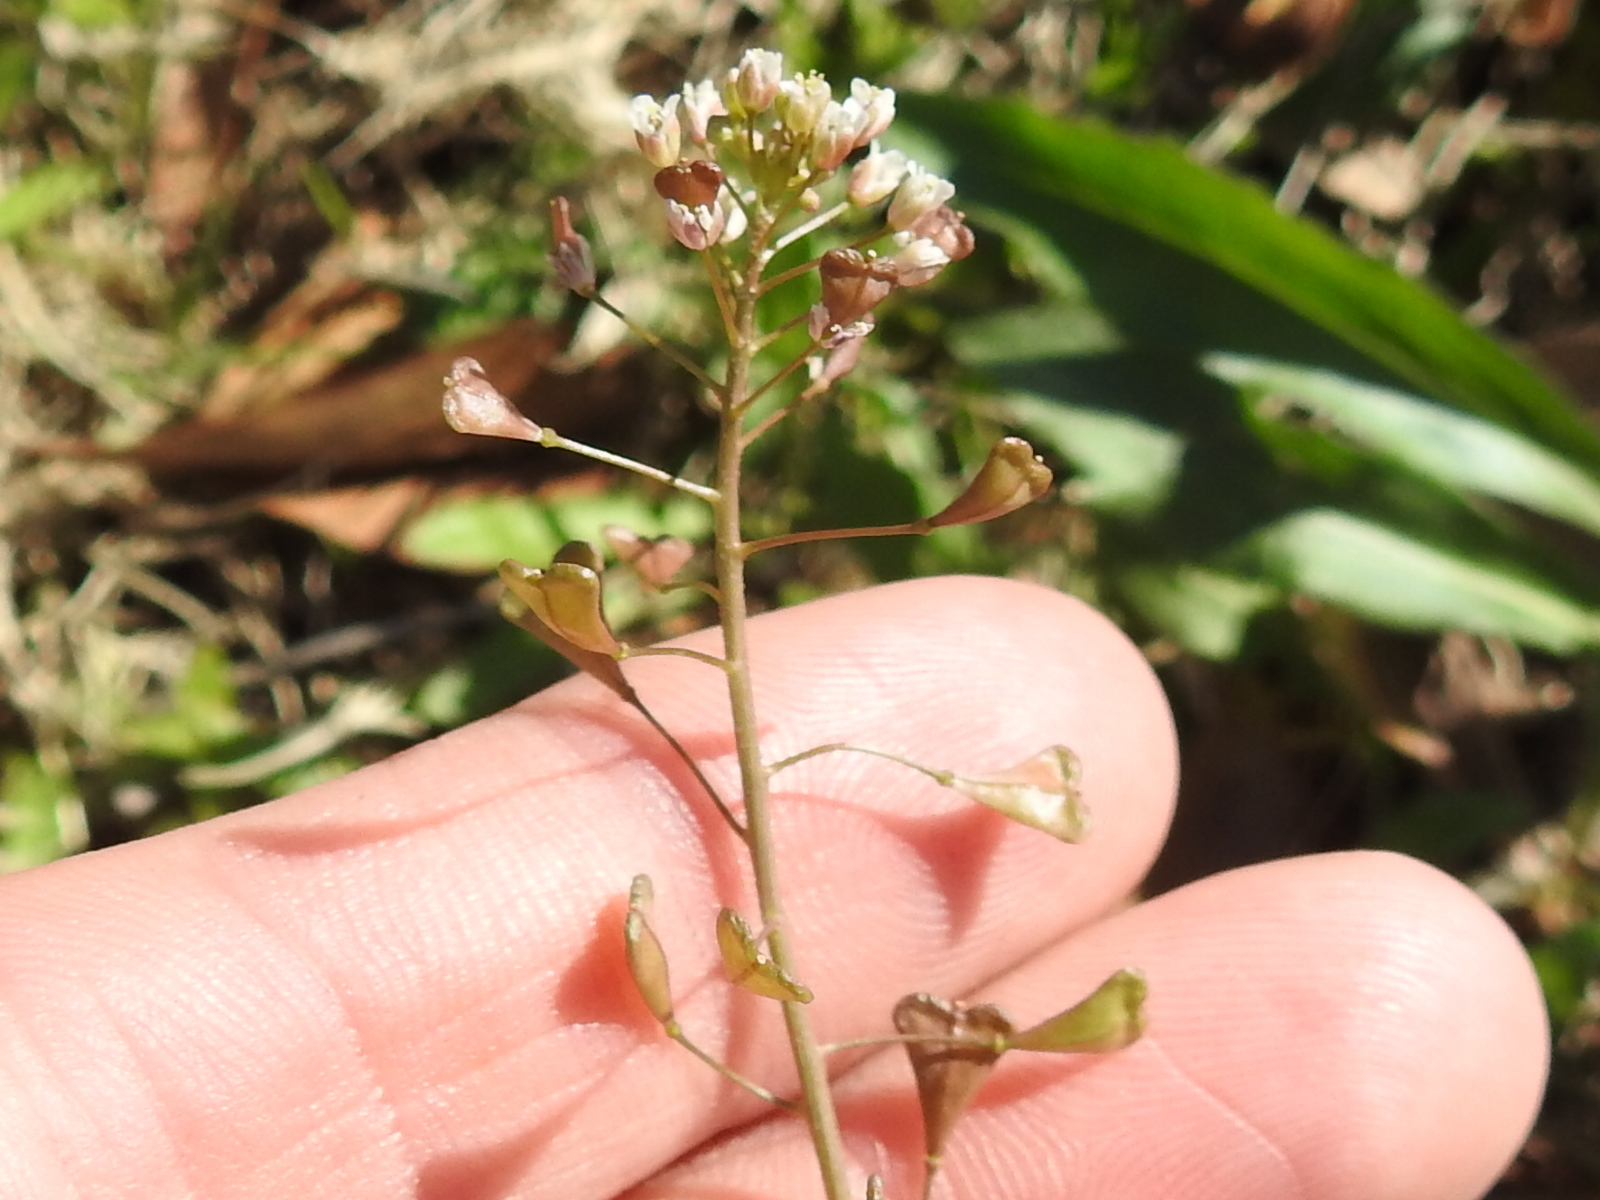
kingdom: Plantae
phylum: Tracheophyta
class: Magnoliopsida
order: Brassicales
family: Brassicaceae
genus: Capsella
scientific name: Capsella bursa-pastoris
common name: Shepherd's purse
